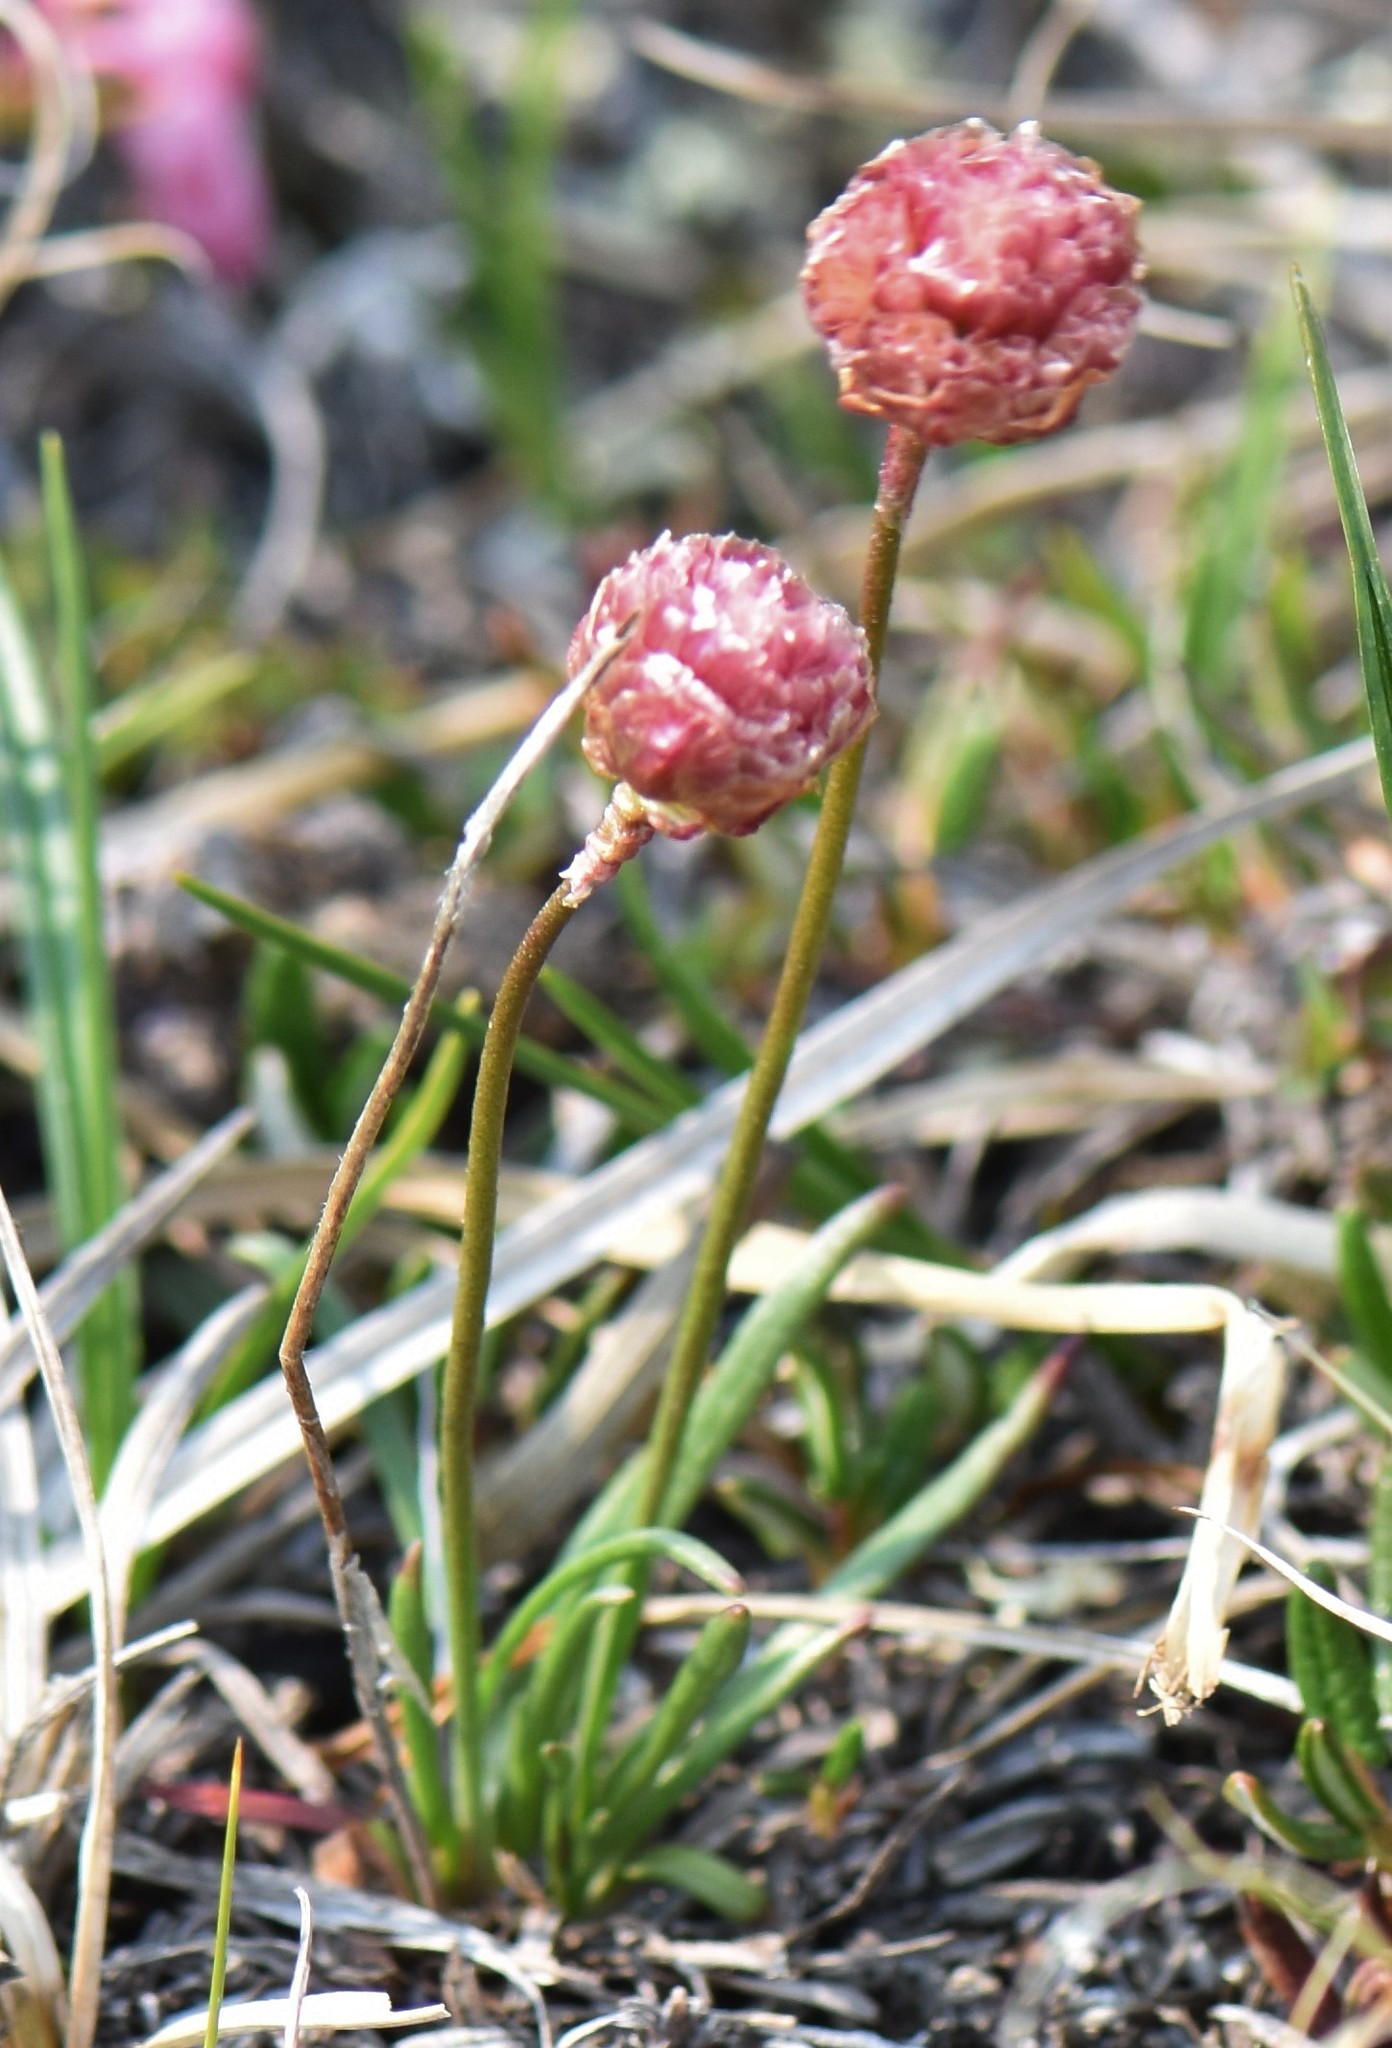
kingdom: Plantae
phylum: Tracheophyta
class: Magnoliopsida
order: Caryophyllales
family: Plumbaginaceae
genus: Armeria
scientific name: Armeria maritima
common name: Thrift
